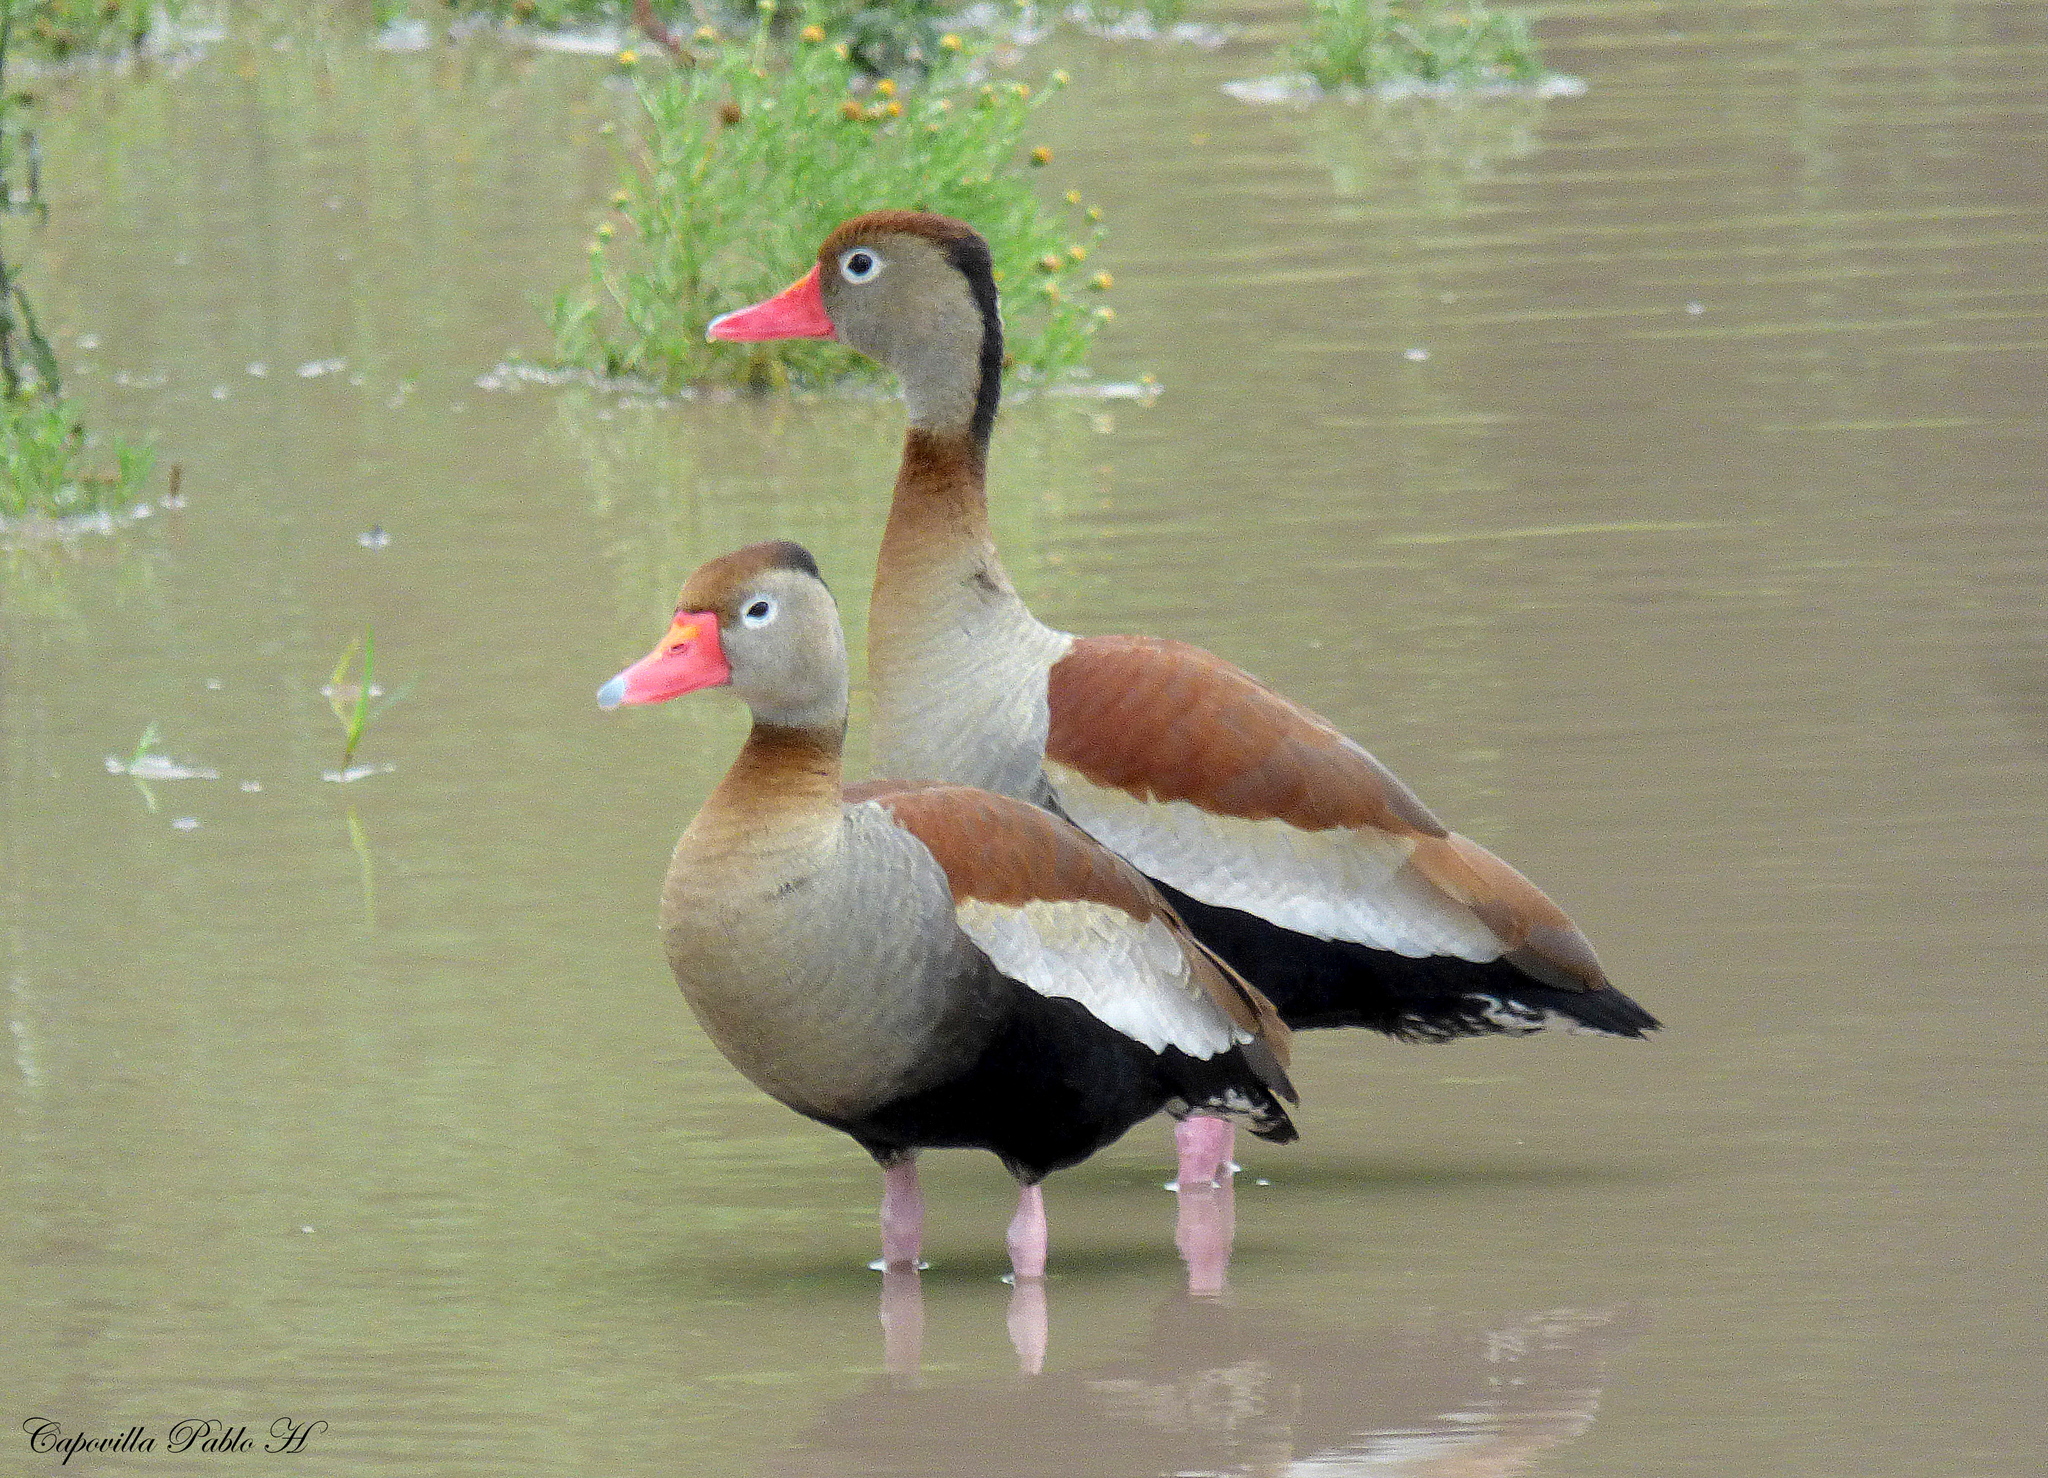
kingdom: Animalia
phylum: Chordata
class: Aves
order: Anseriformes
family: Anatidae
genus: Dendrocygna
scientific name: Dendrocygna autumnalis
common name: Black-bellied whistling duck
